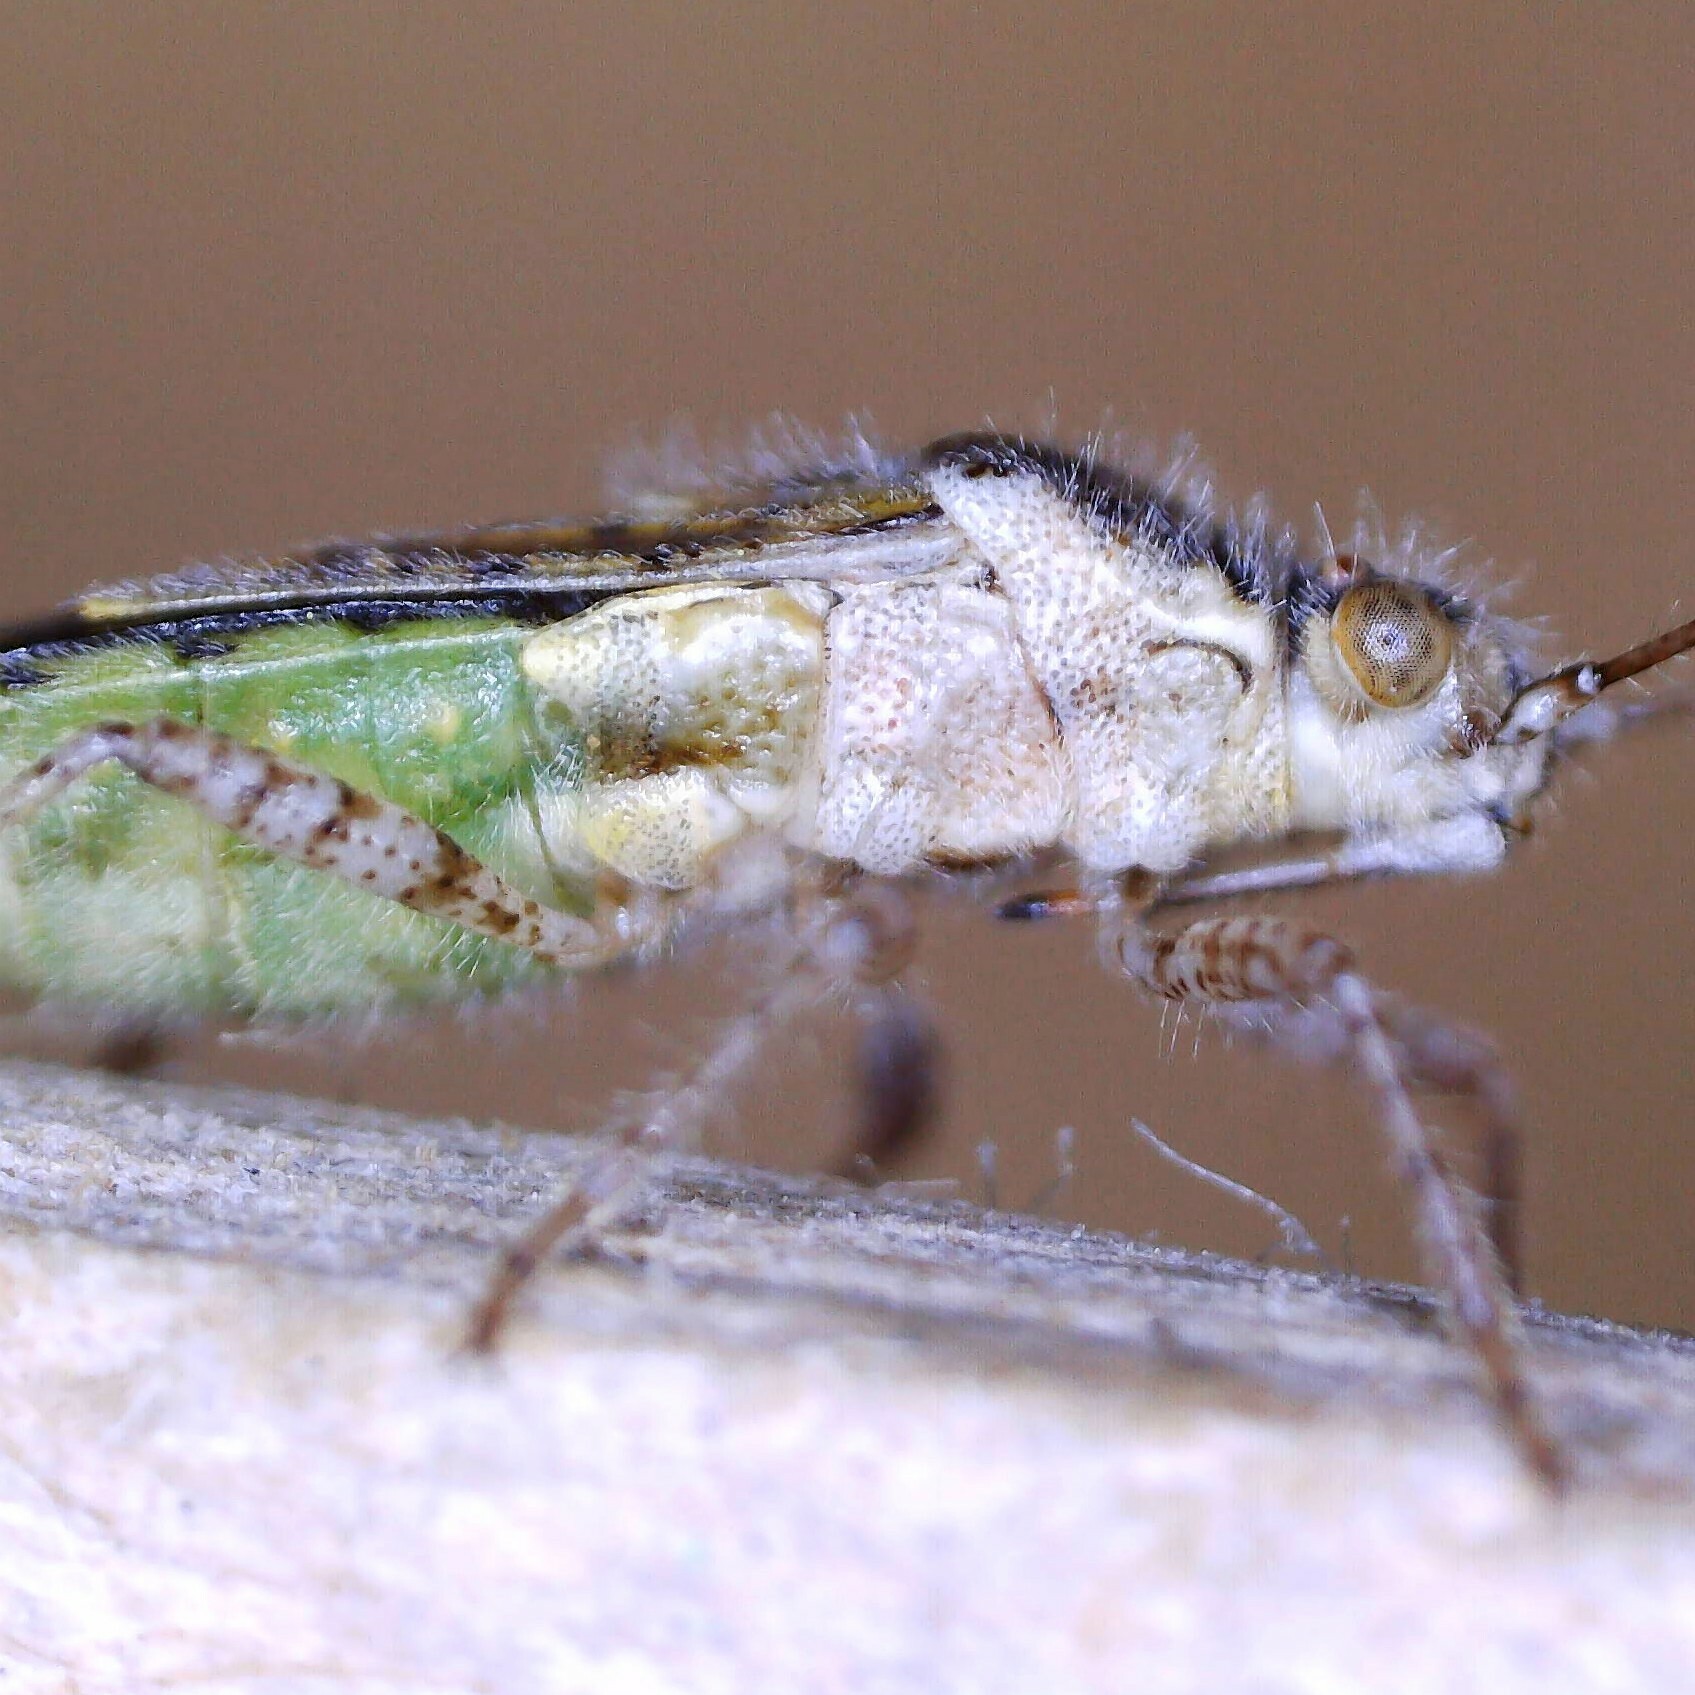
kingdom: Animalia
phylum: Arthropoda
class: Insecta
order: Hemiptera
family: Rhopalidae
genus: Brachycarenus
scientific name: Brachycarenus tigrinus
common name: Scentless plant bug
